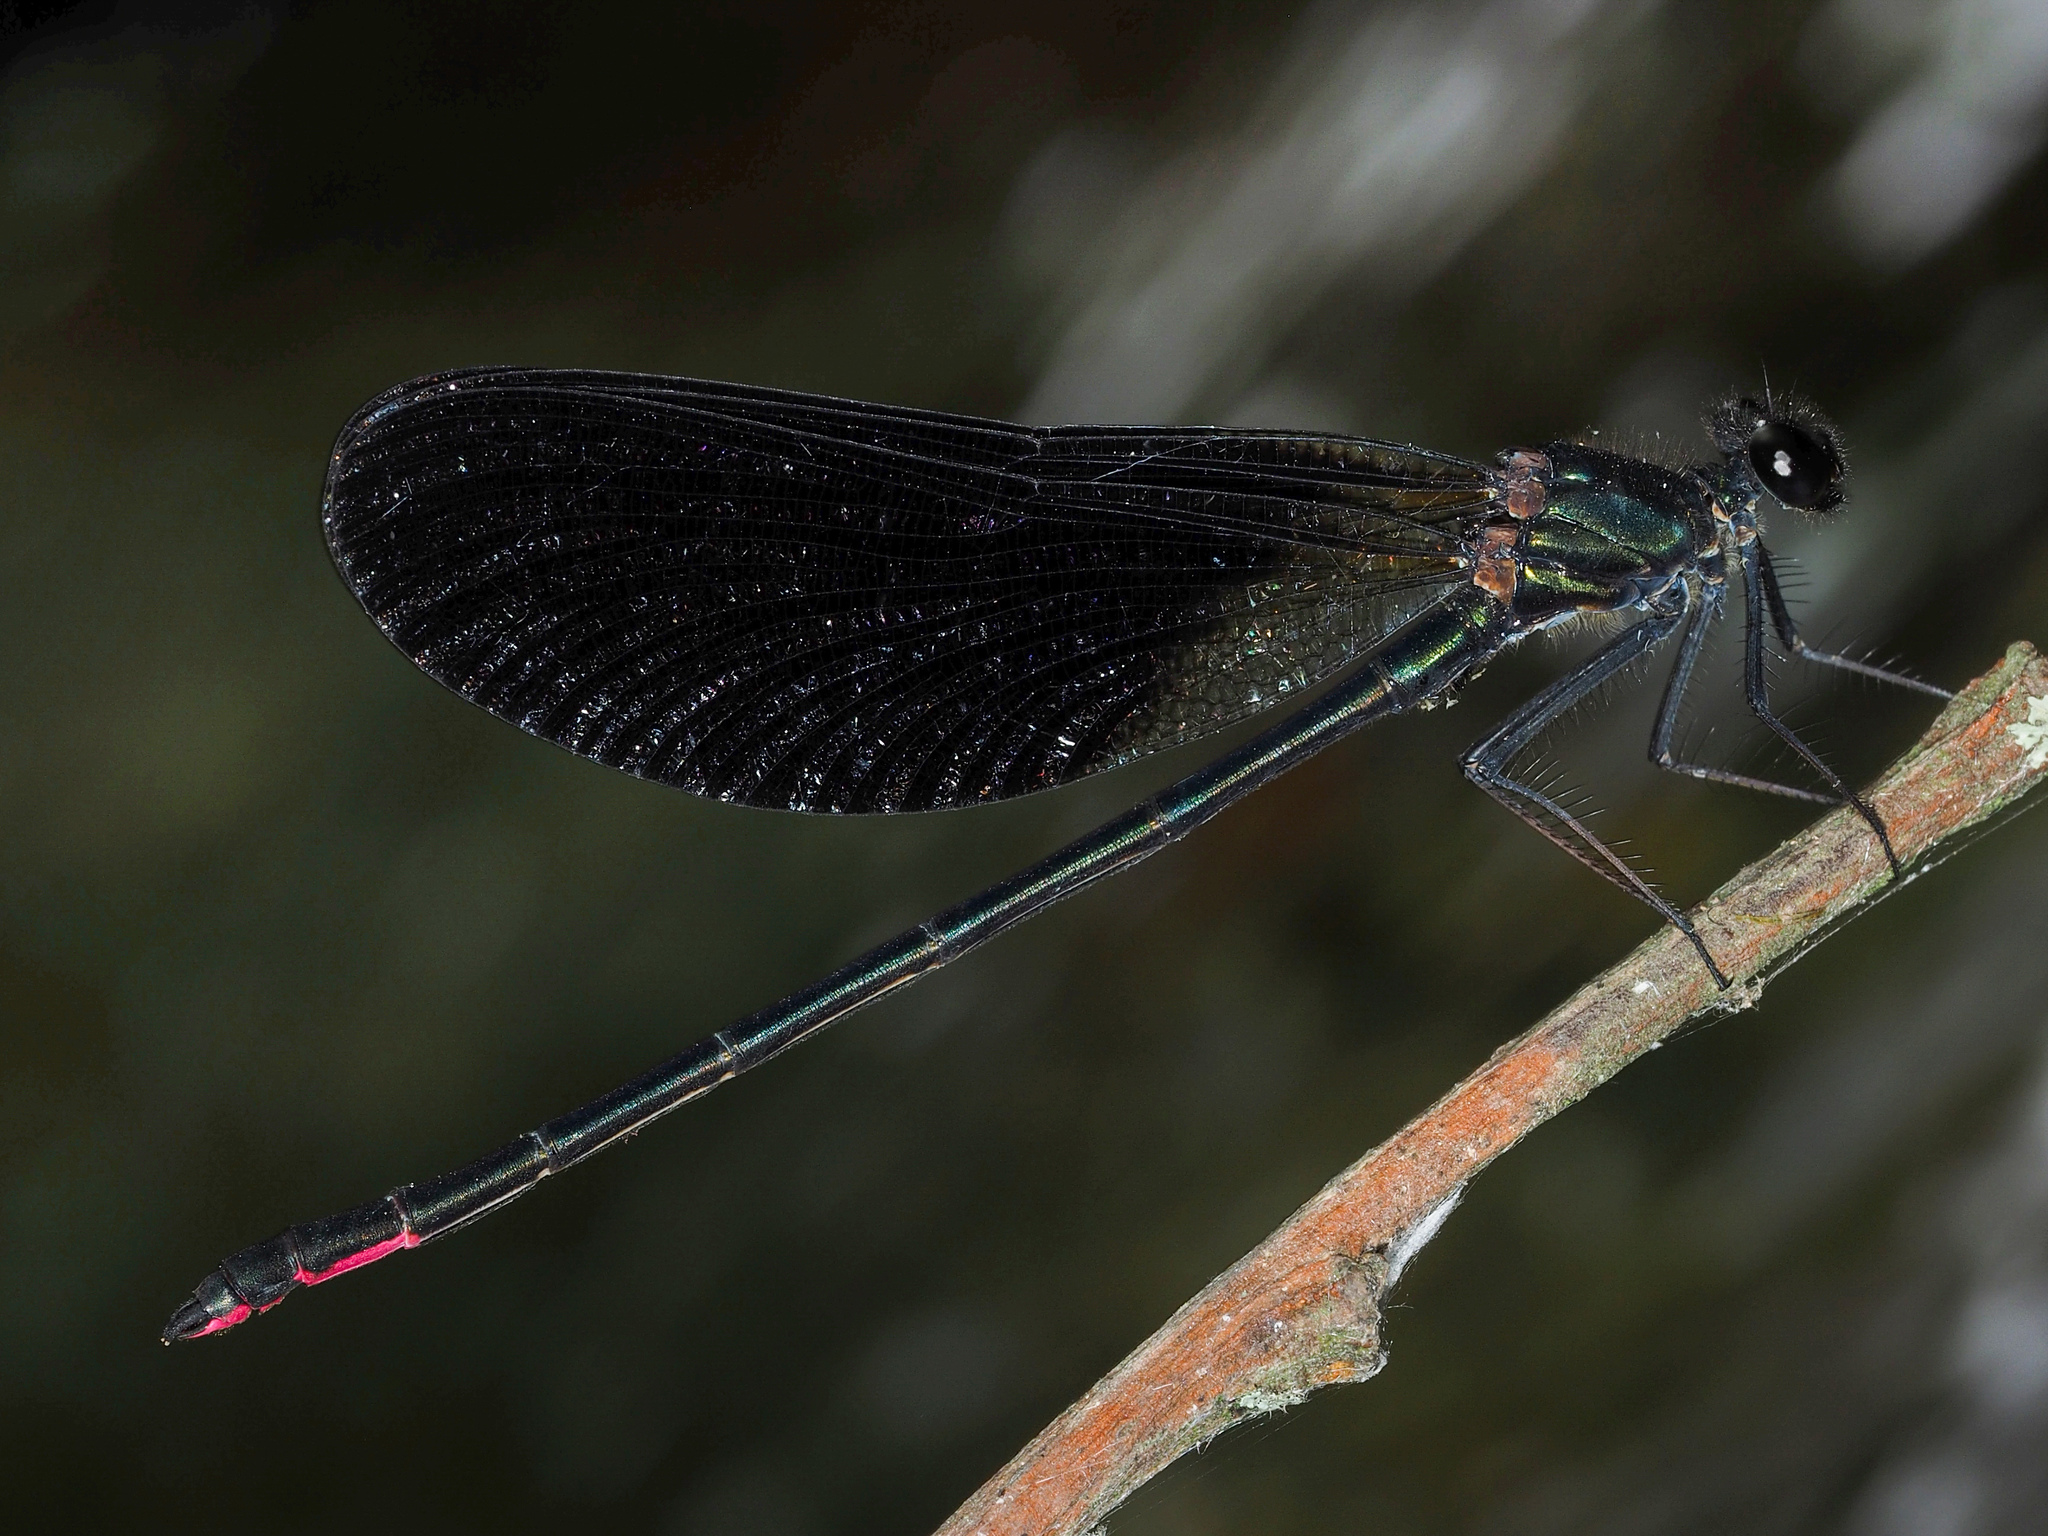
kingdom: Animalia
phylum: Arthropoda
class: Insecta
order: Odonata
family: Calopterygidae
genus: Calopteryx
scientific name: Calopteryx haemorrhoidalis
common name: Copper demoiselle
